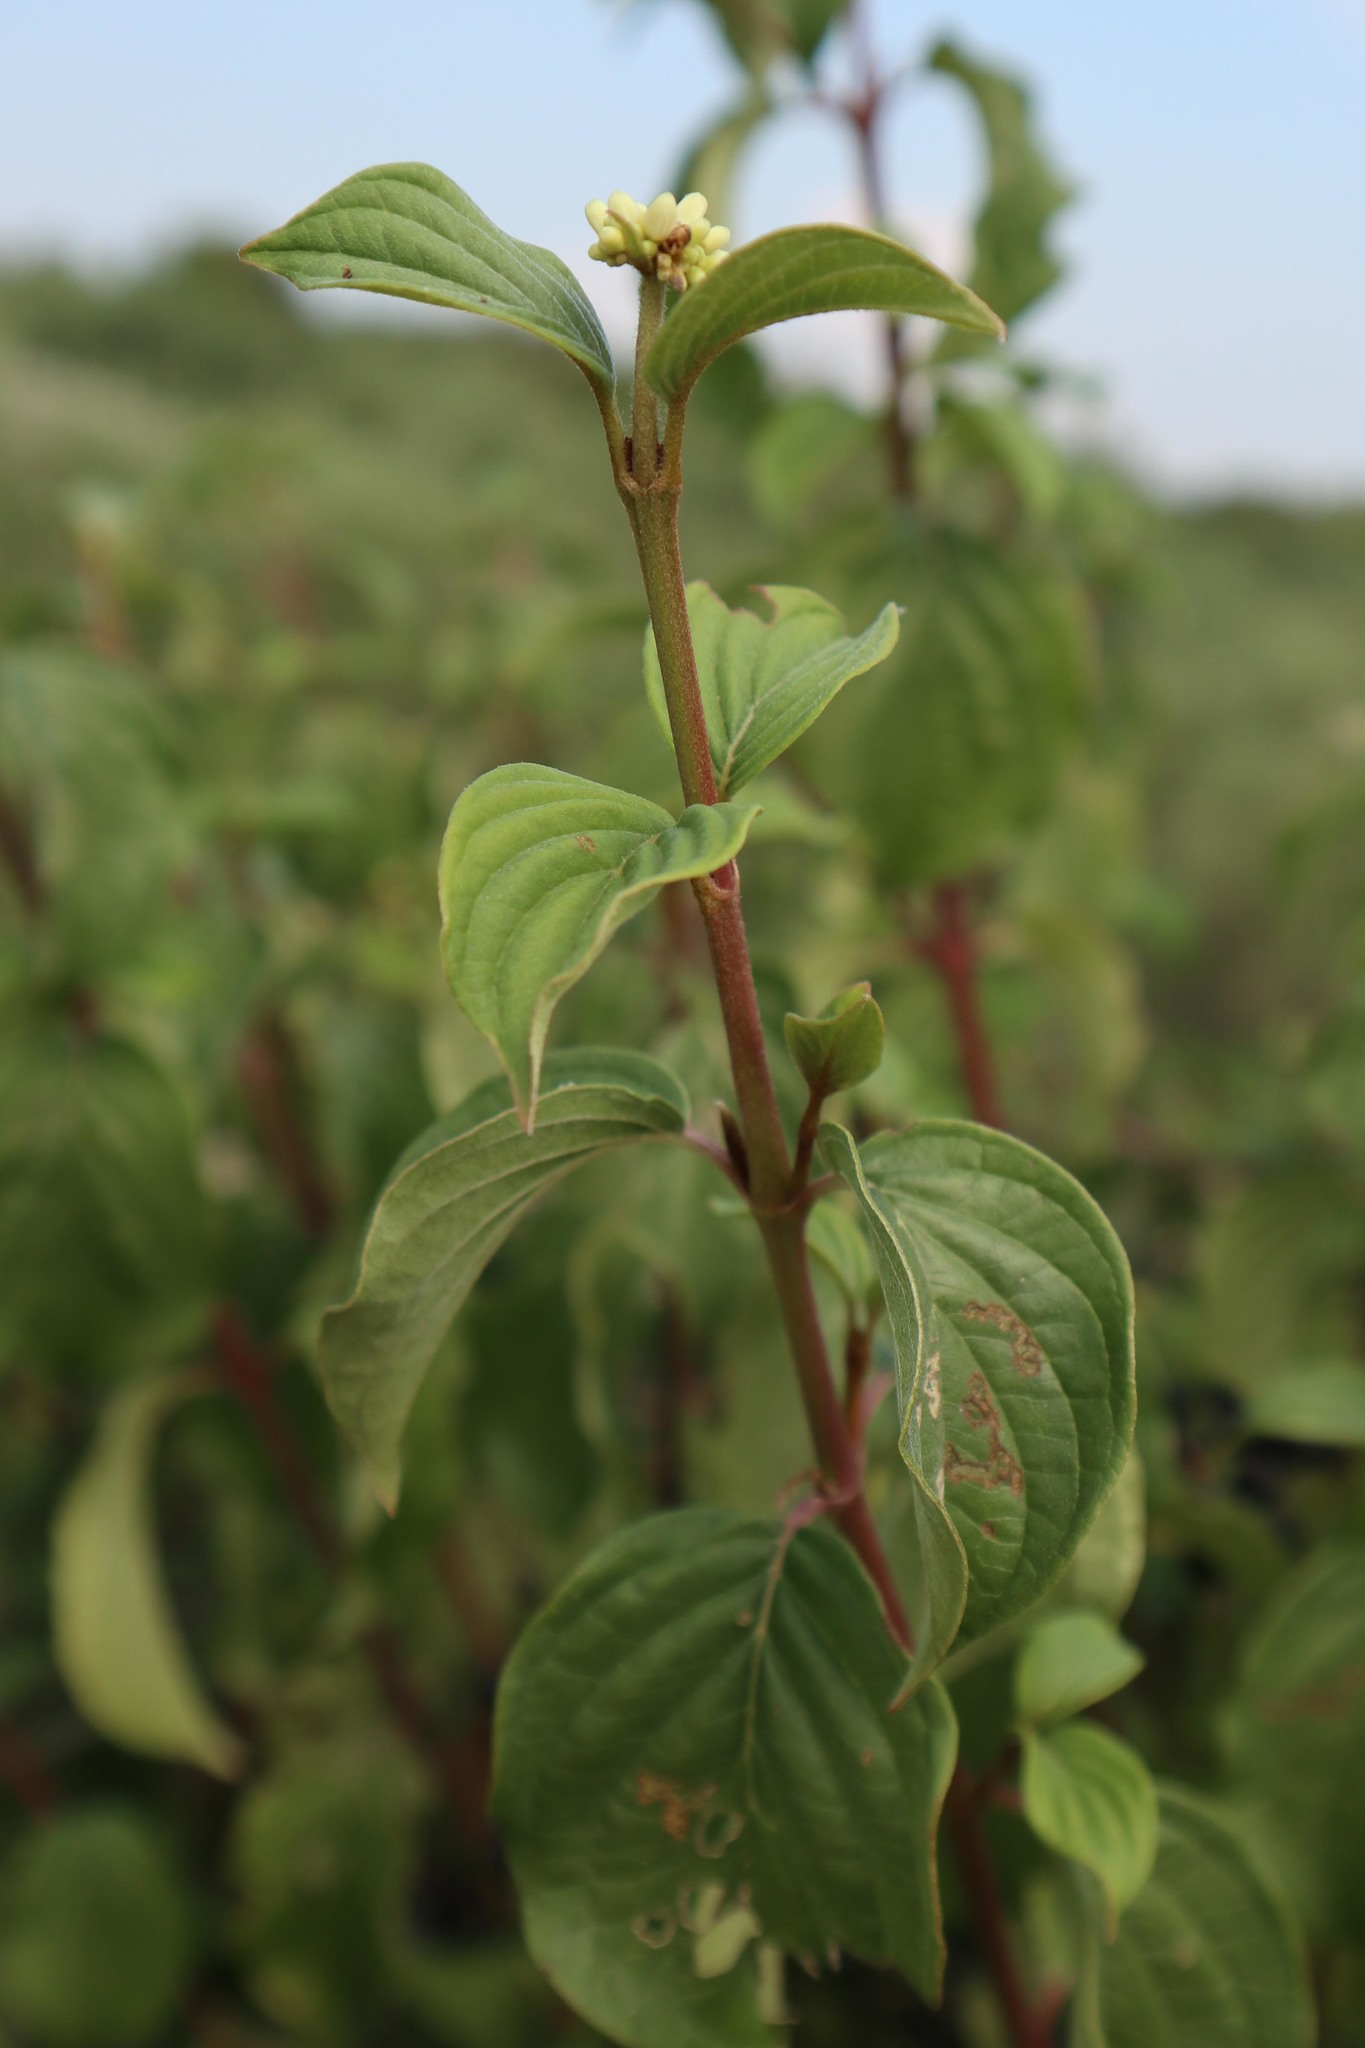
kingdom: Plantae
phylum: Tracheophyta
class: Magnoliopsida
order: Cornales
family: Cornaceae
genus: Cornus
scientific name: Cornus sanguinea
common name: Dogwood
